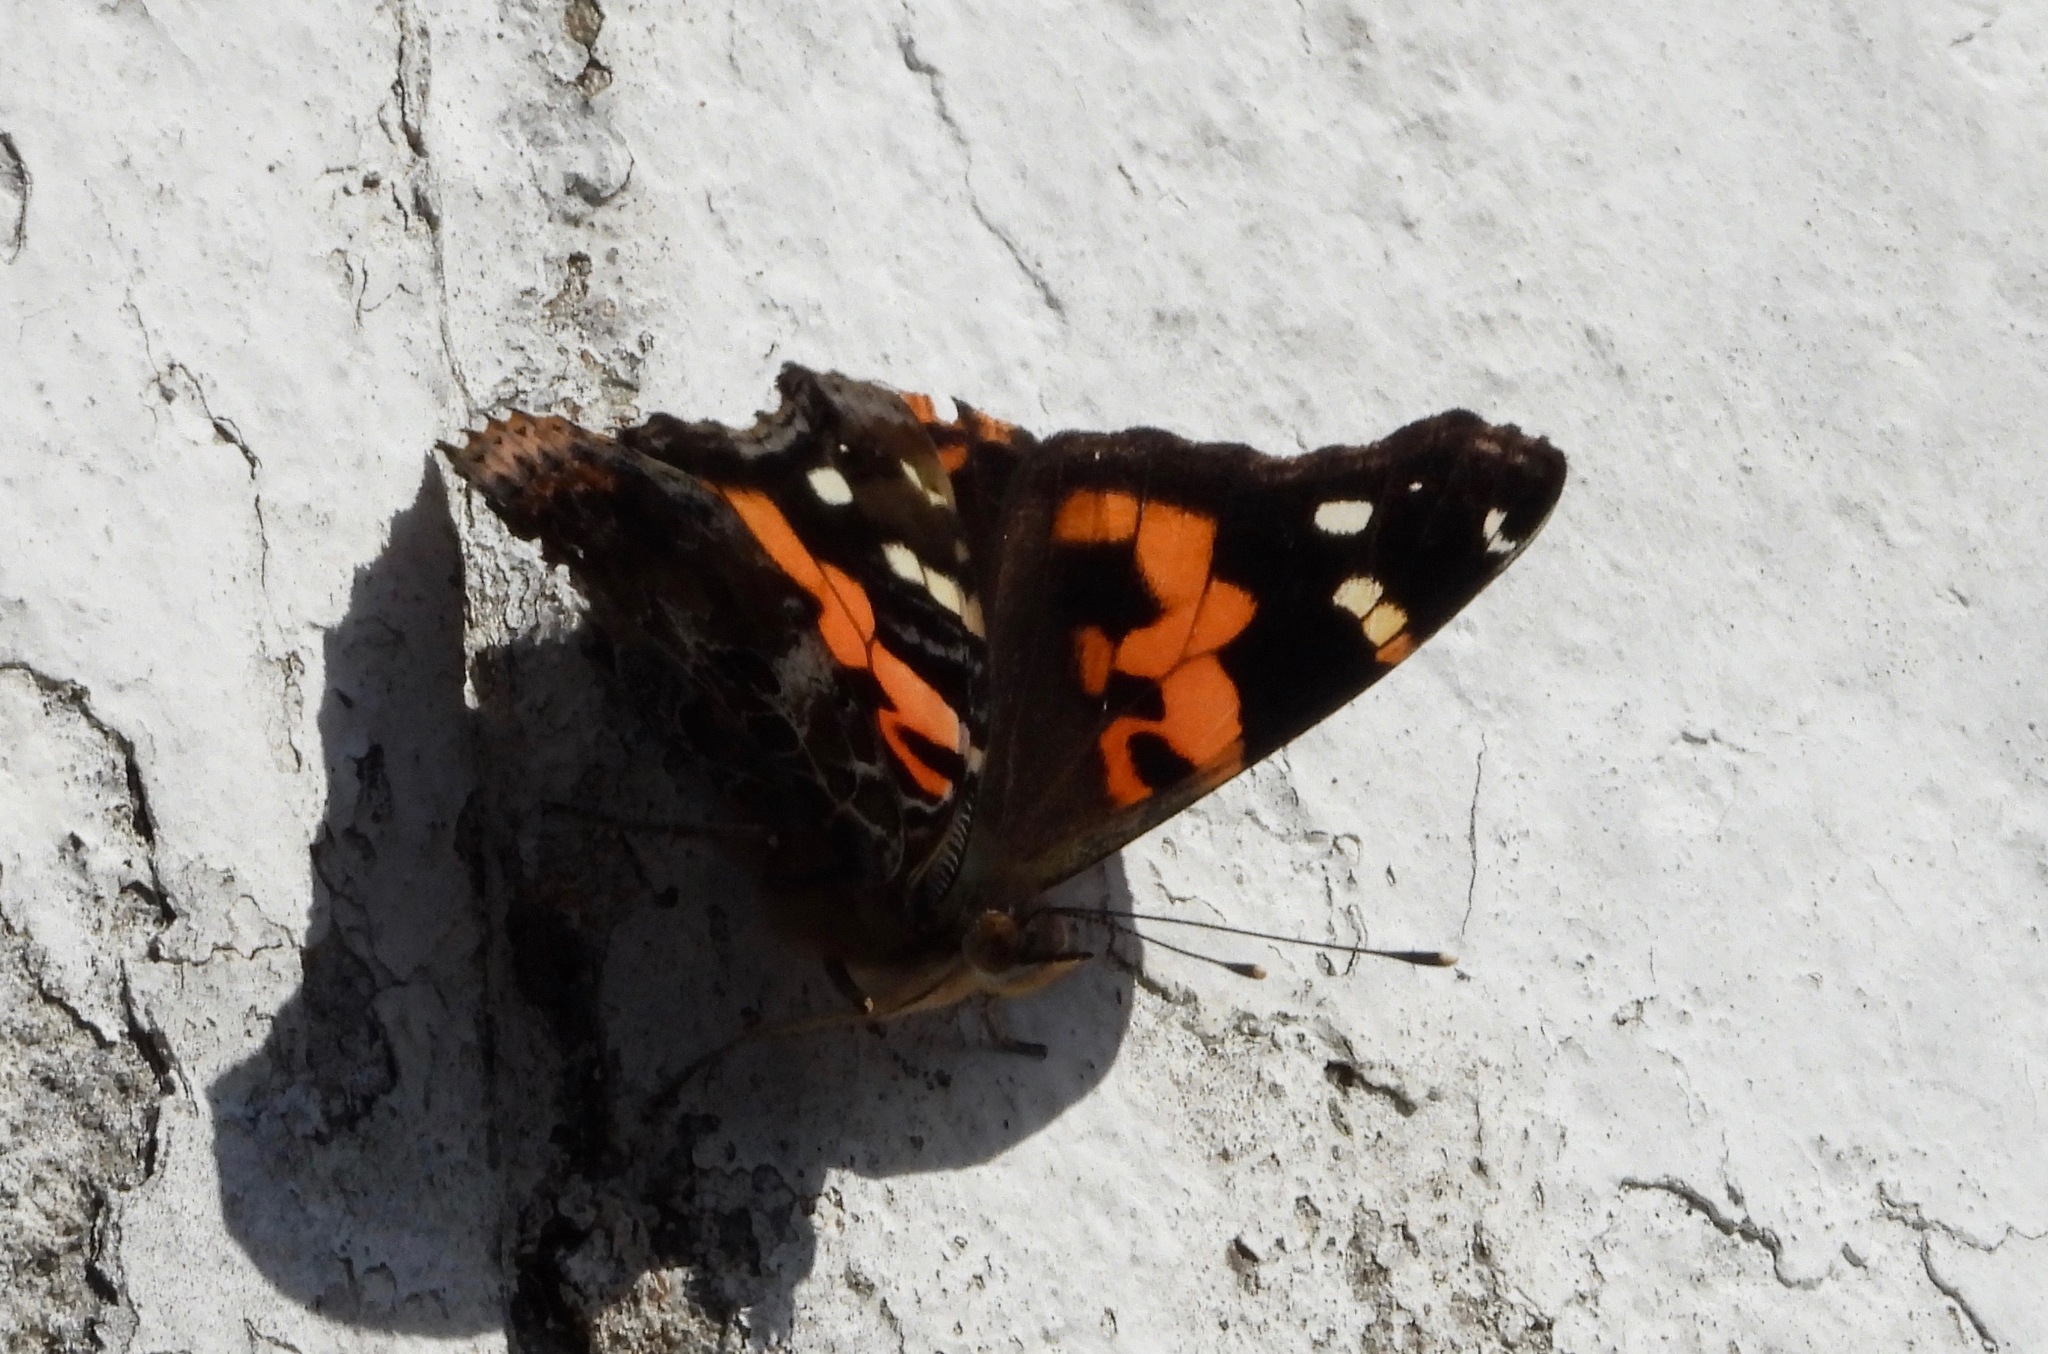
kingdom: Animalia
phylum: Arthropoda
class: Insecta
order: Lepidoptera
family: Nymphalidae
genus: Vanessa
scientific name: Vanessa indica
